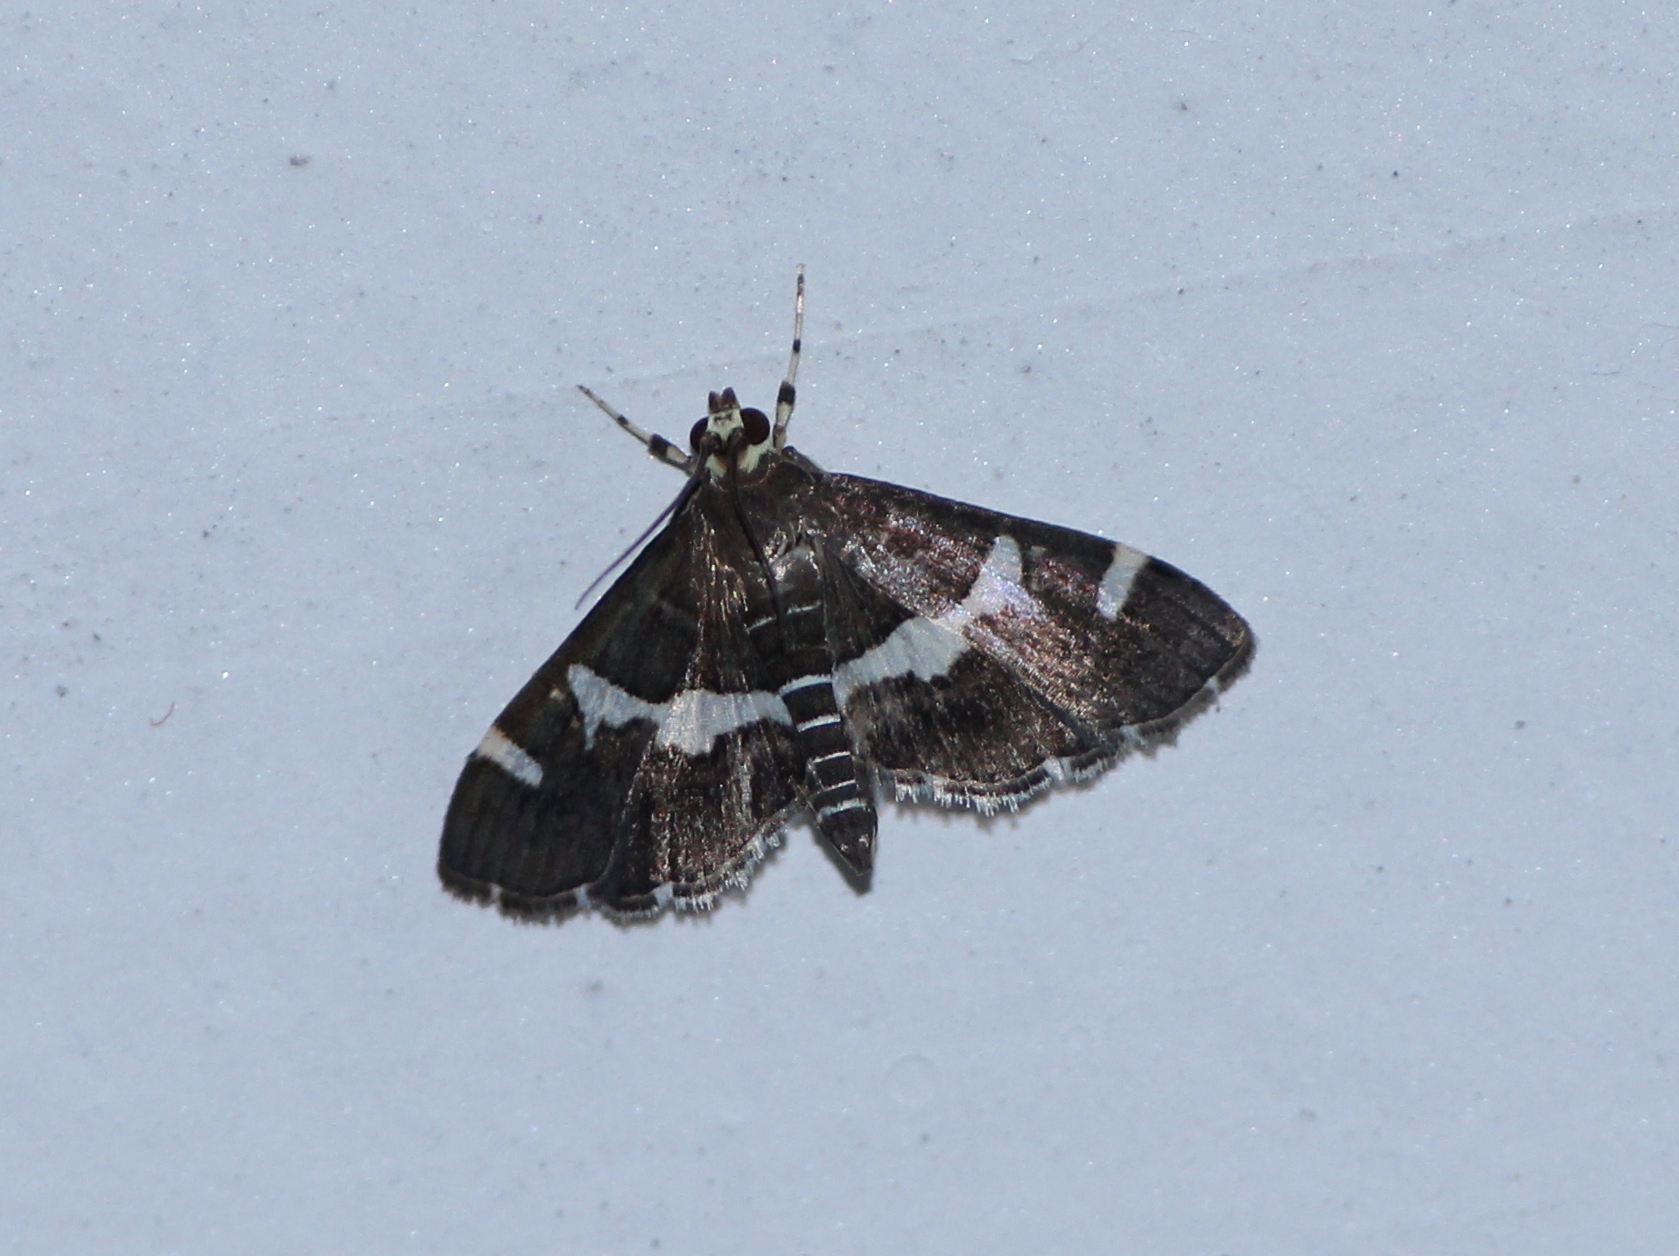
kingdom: Animalia
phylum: Arthropoda
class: Insecta
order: Lepidoptera
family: Crambidae
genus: Spoladea
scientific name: Spoladea recurvalis
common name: Beet webworm moth
